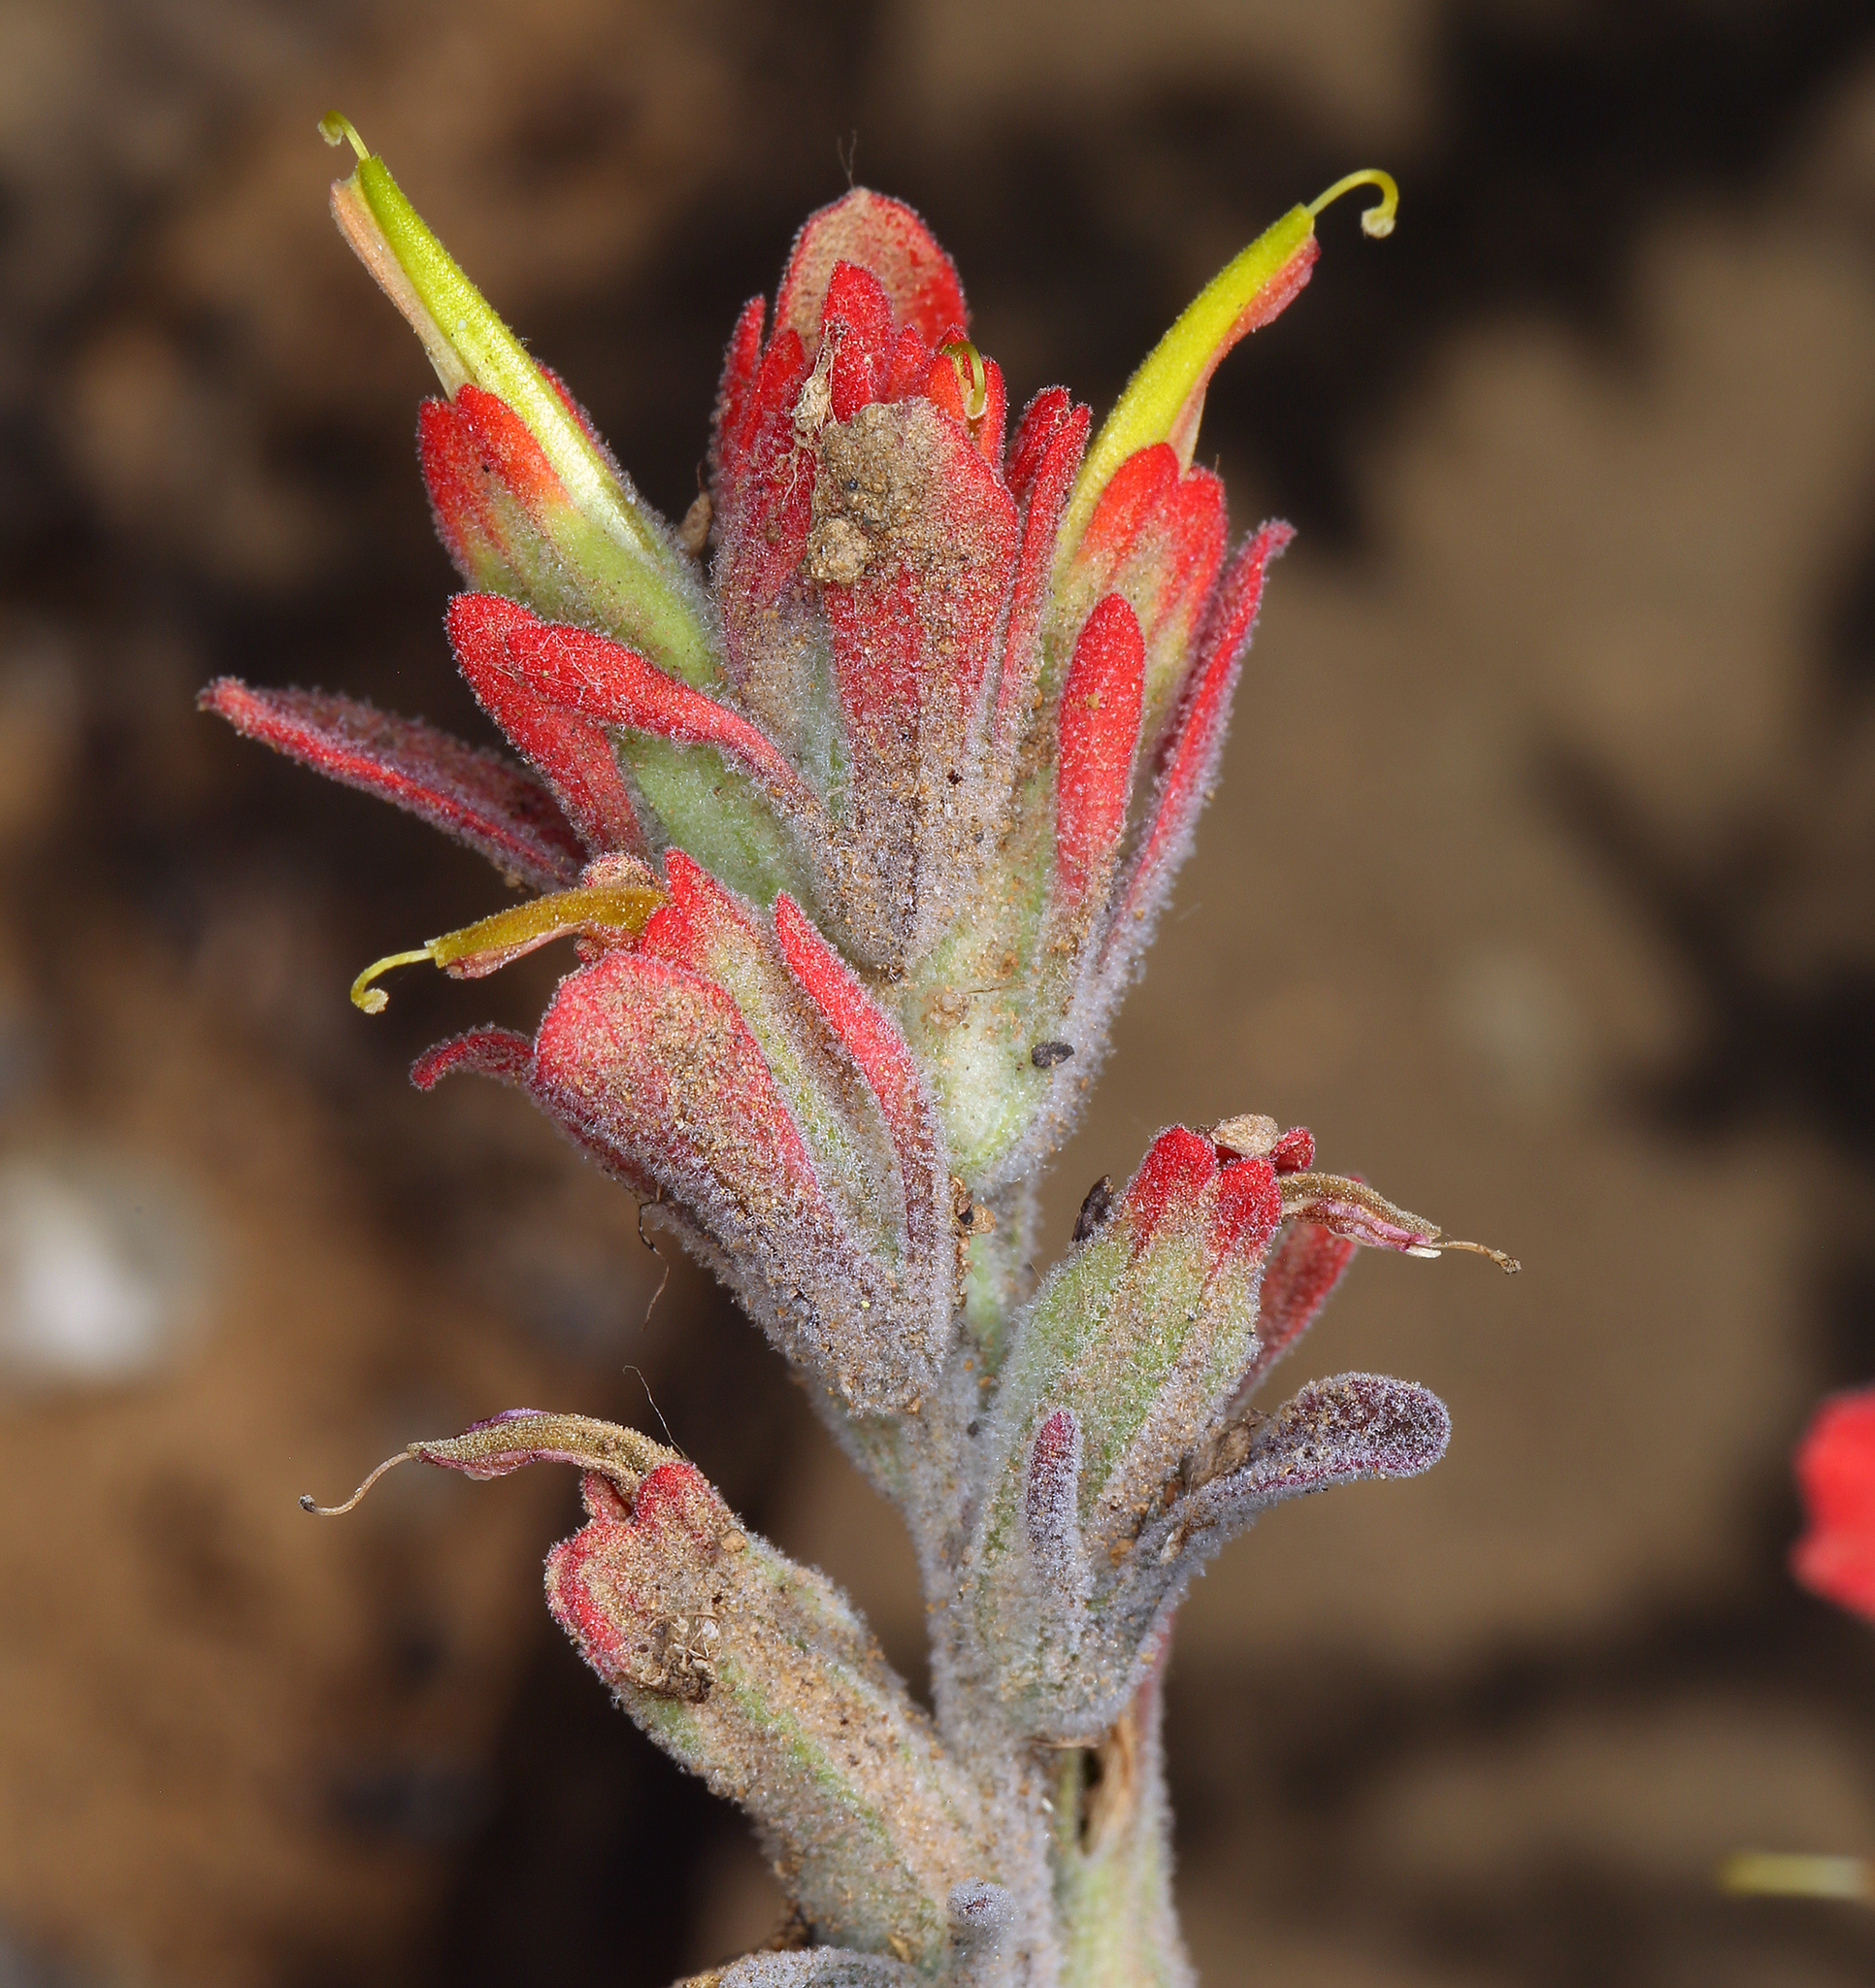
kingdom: Plantae
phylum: Tracheophyta
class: Magnoliopsida
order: Lamiales
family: Orobanchaceae
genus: Castilleja
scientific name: Castilleja foliolosa
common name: Woolly indian paintbrush
